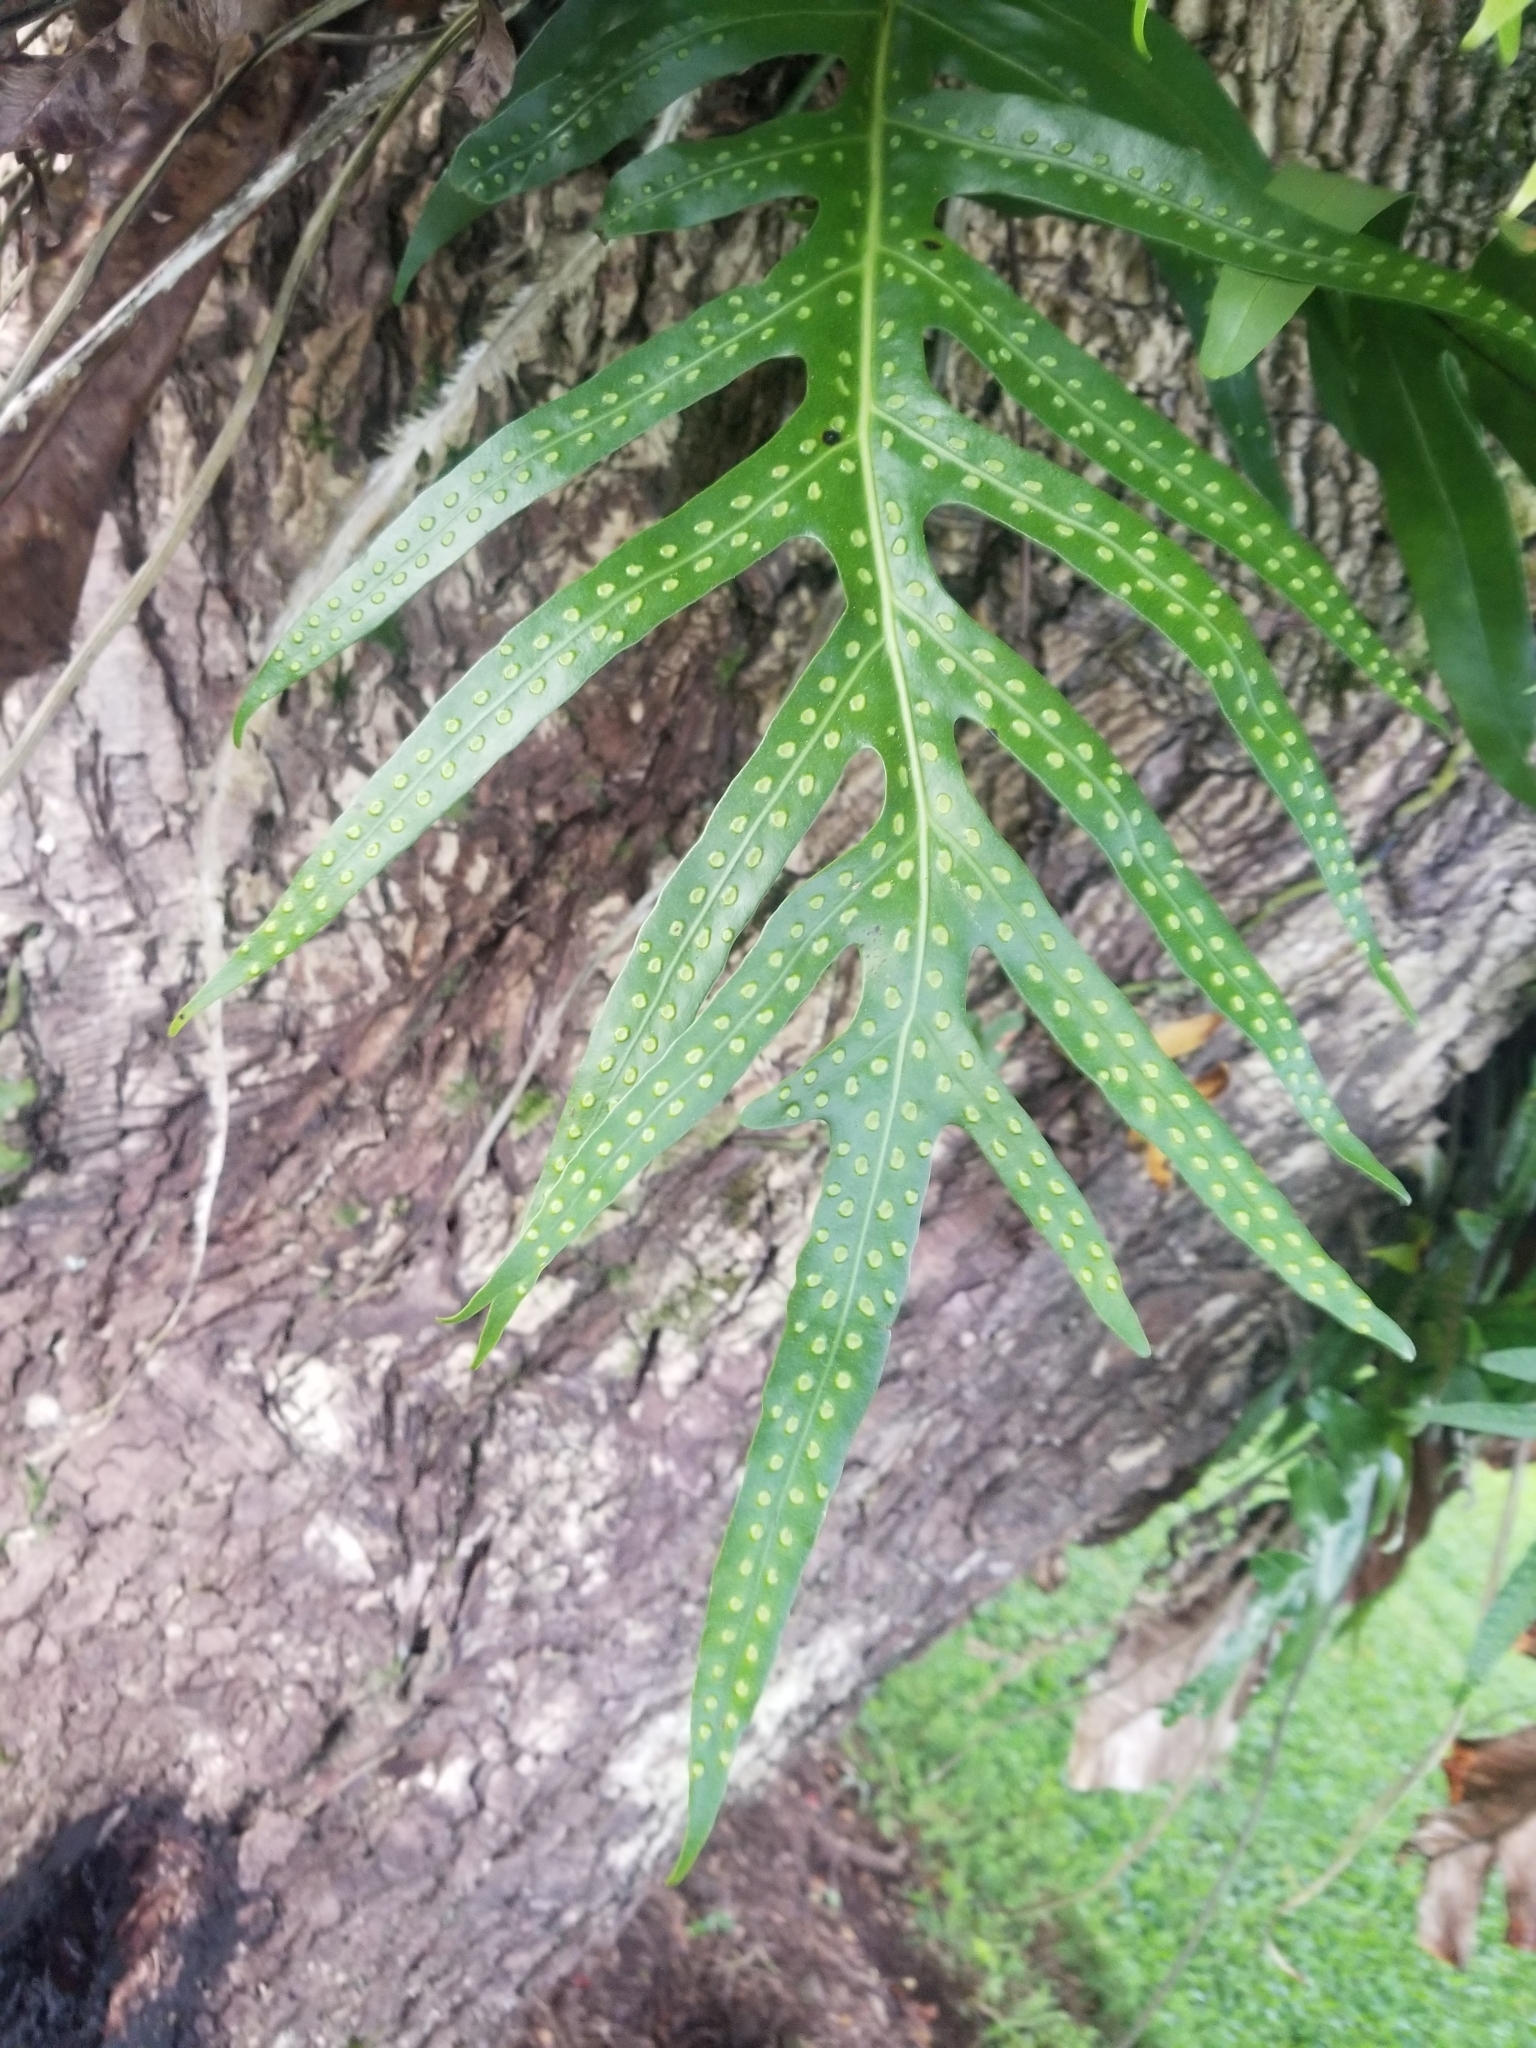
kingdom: Plantae
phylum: Tracheophyta
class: Polypodiopsida
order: Polypodiales
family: Polypodiaceae
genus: Microsorum
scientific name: Microsorum grossum
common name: Musk fern
